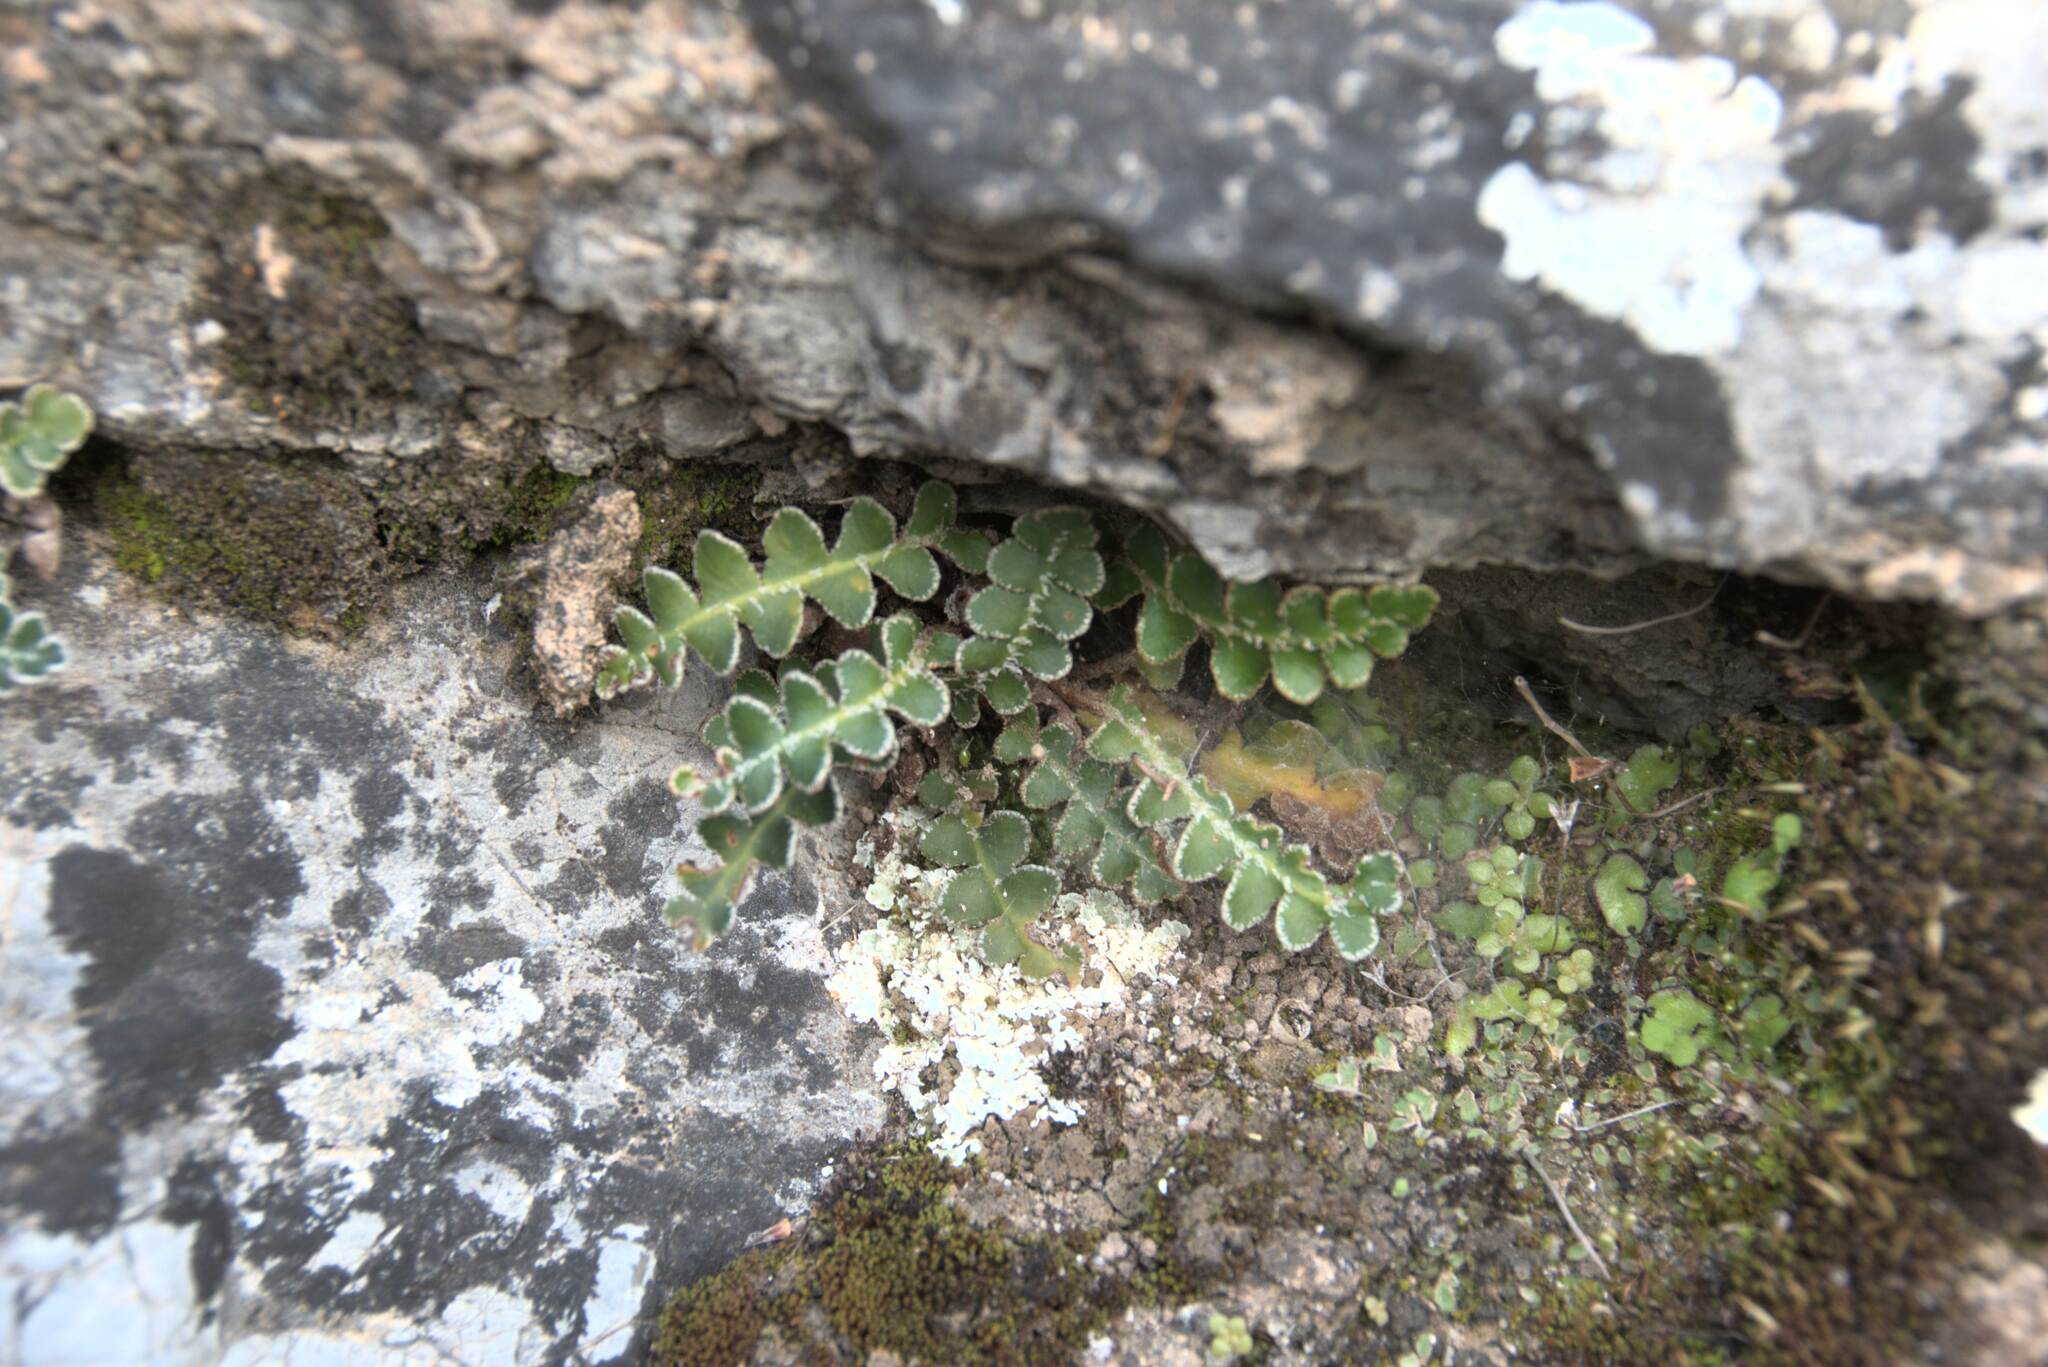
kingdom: Plantae
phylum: Tracheophyta
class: Polypodiopsida
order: Polypodiales
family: Aspleniaceae
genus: Asplenium
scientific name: Asplenium ceterach
